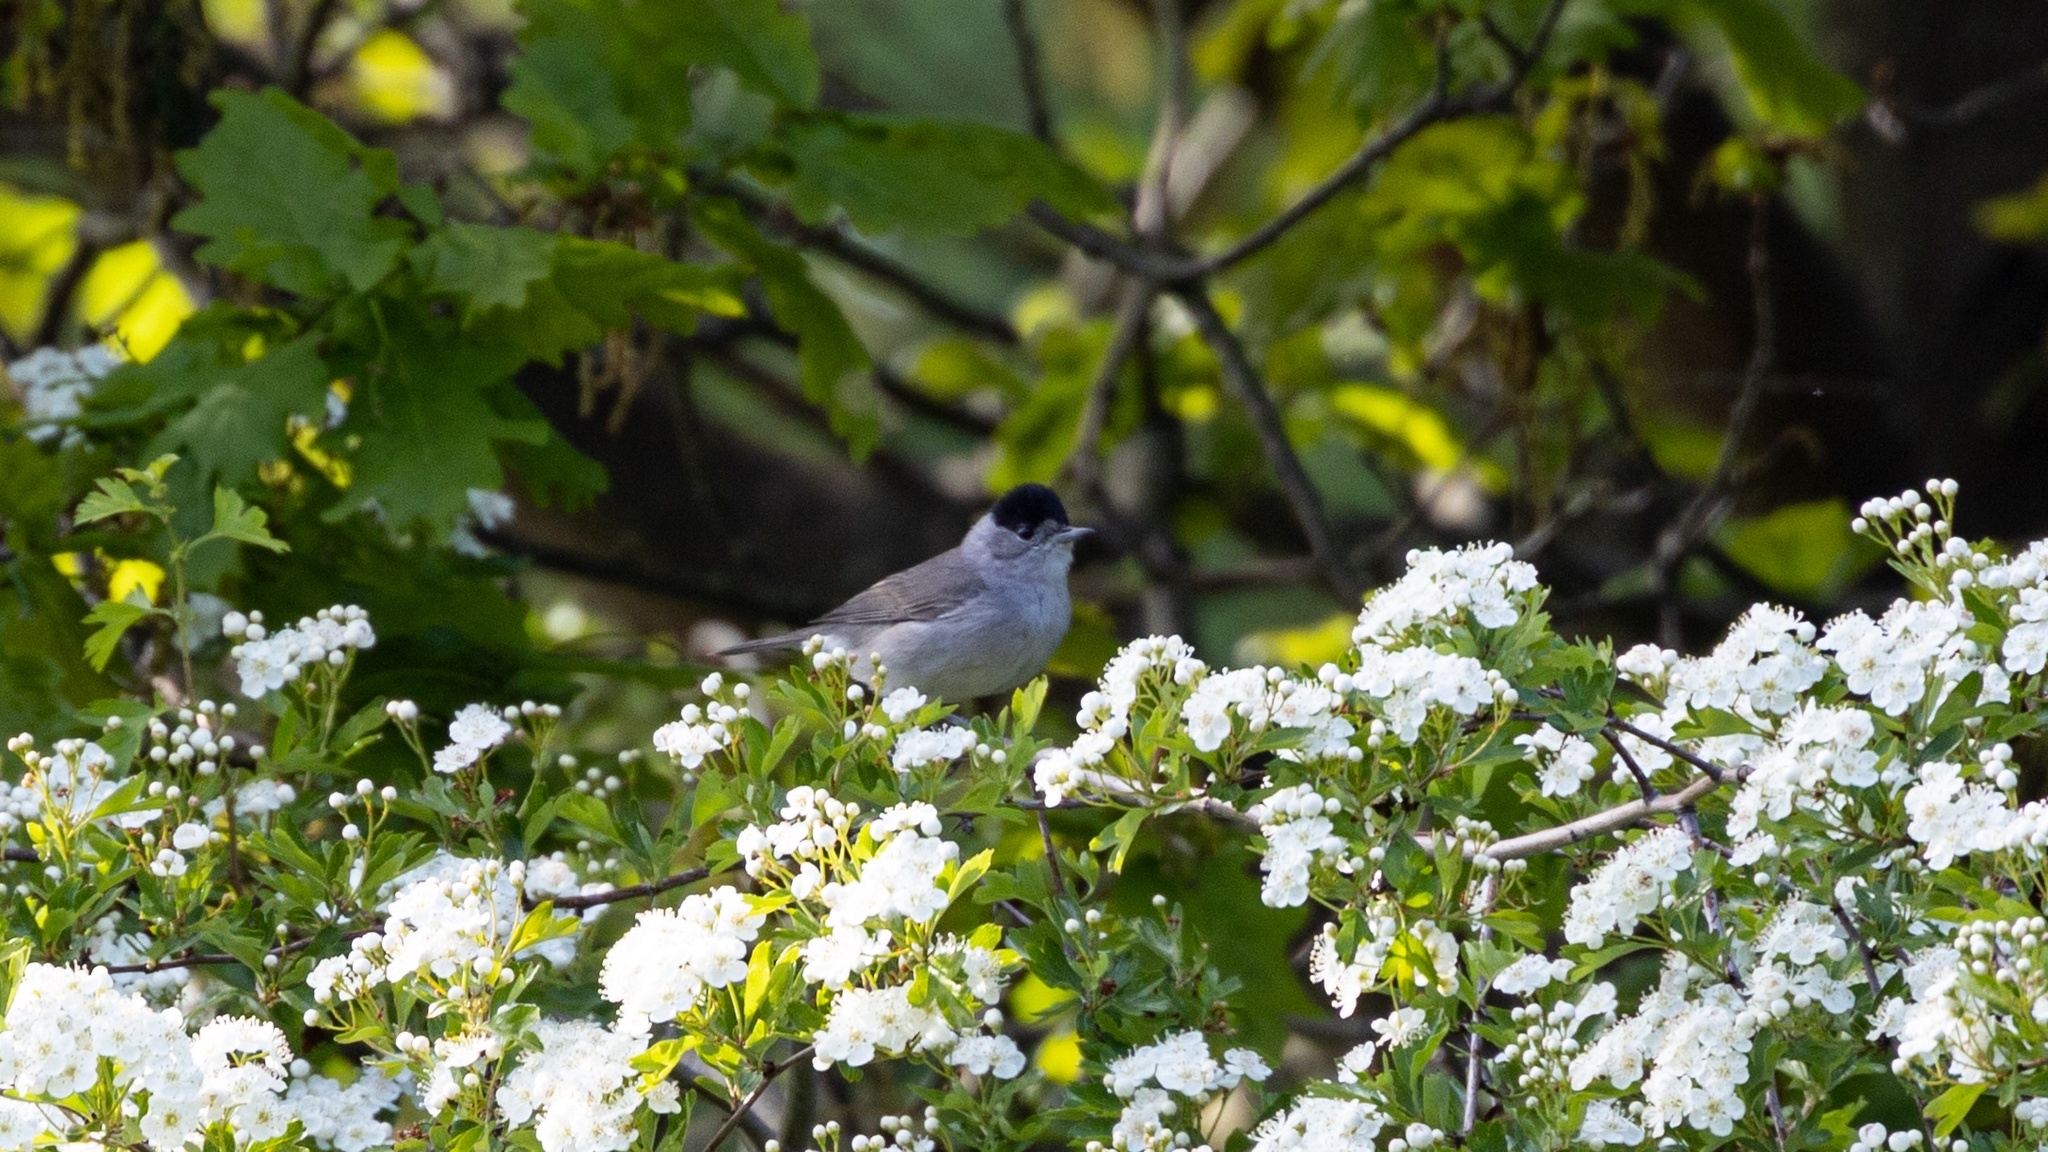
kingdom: Animalia
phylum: Chordata
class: Aves
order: Passeriformes
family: Sylviidae
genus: Sylvia
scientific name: Sylvia atricapilla
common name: Eurasian blackcap
